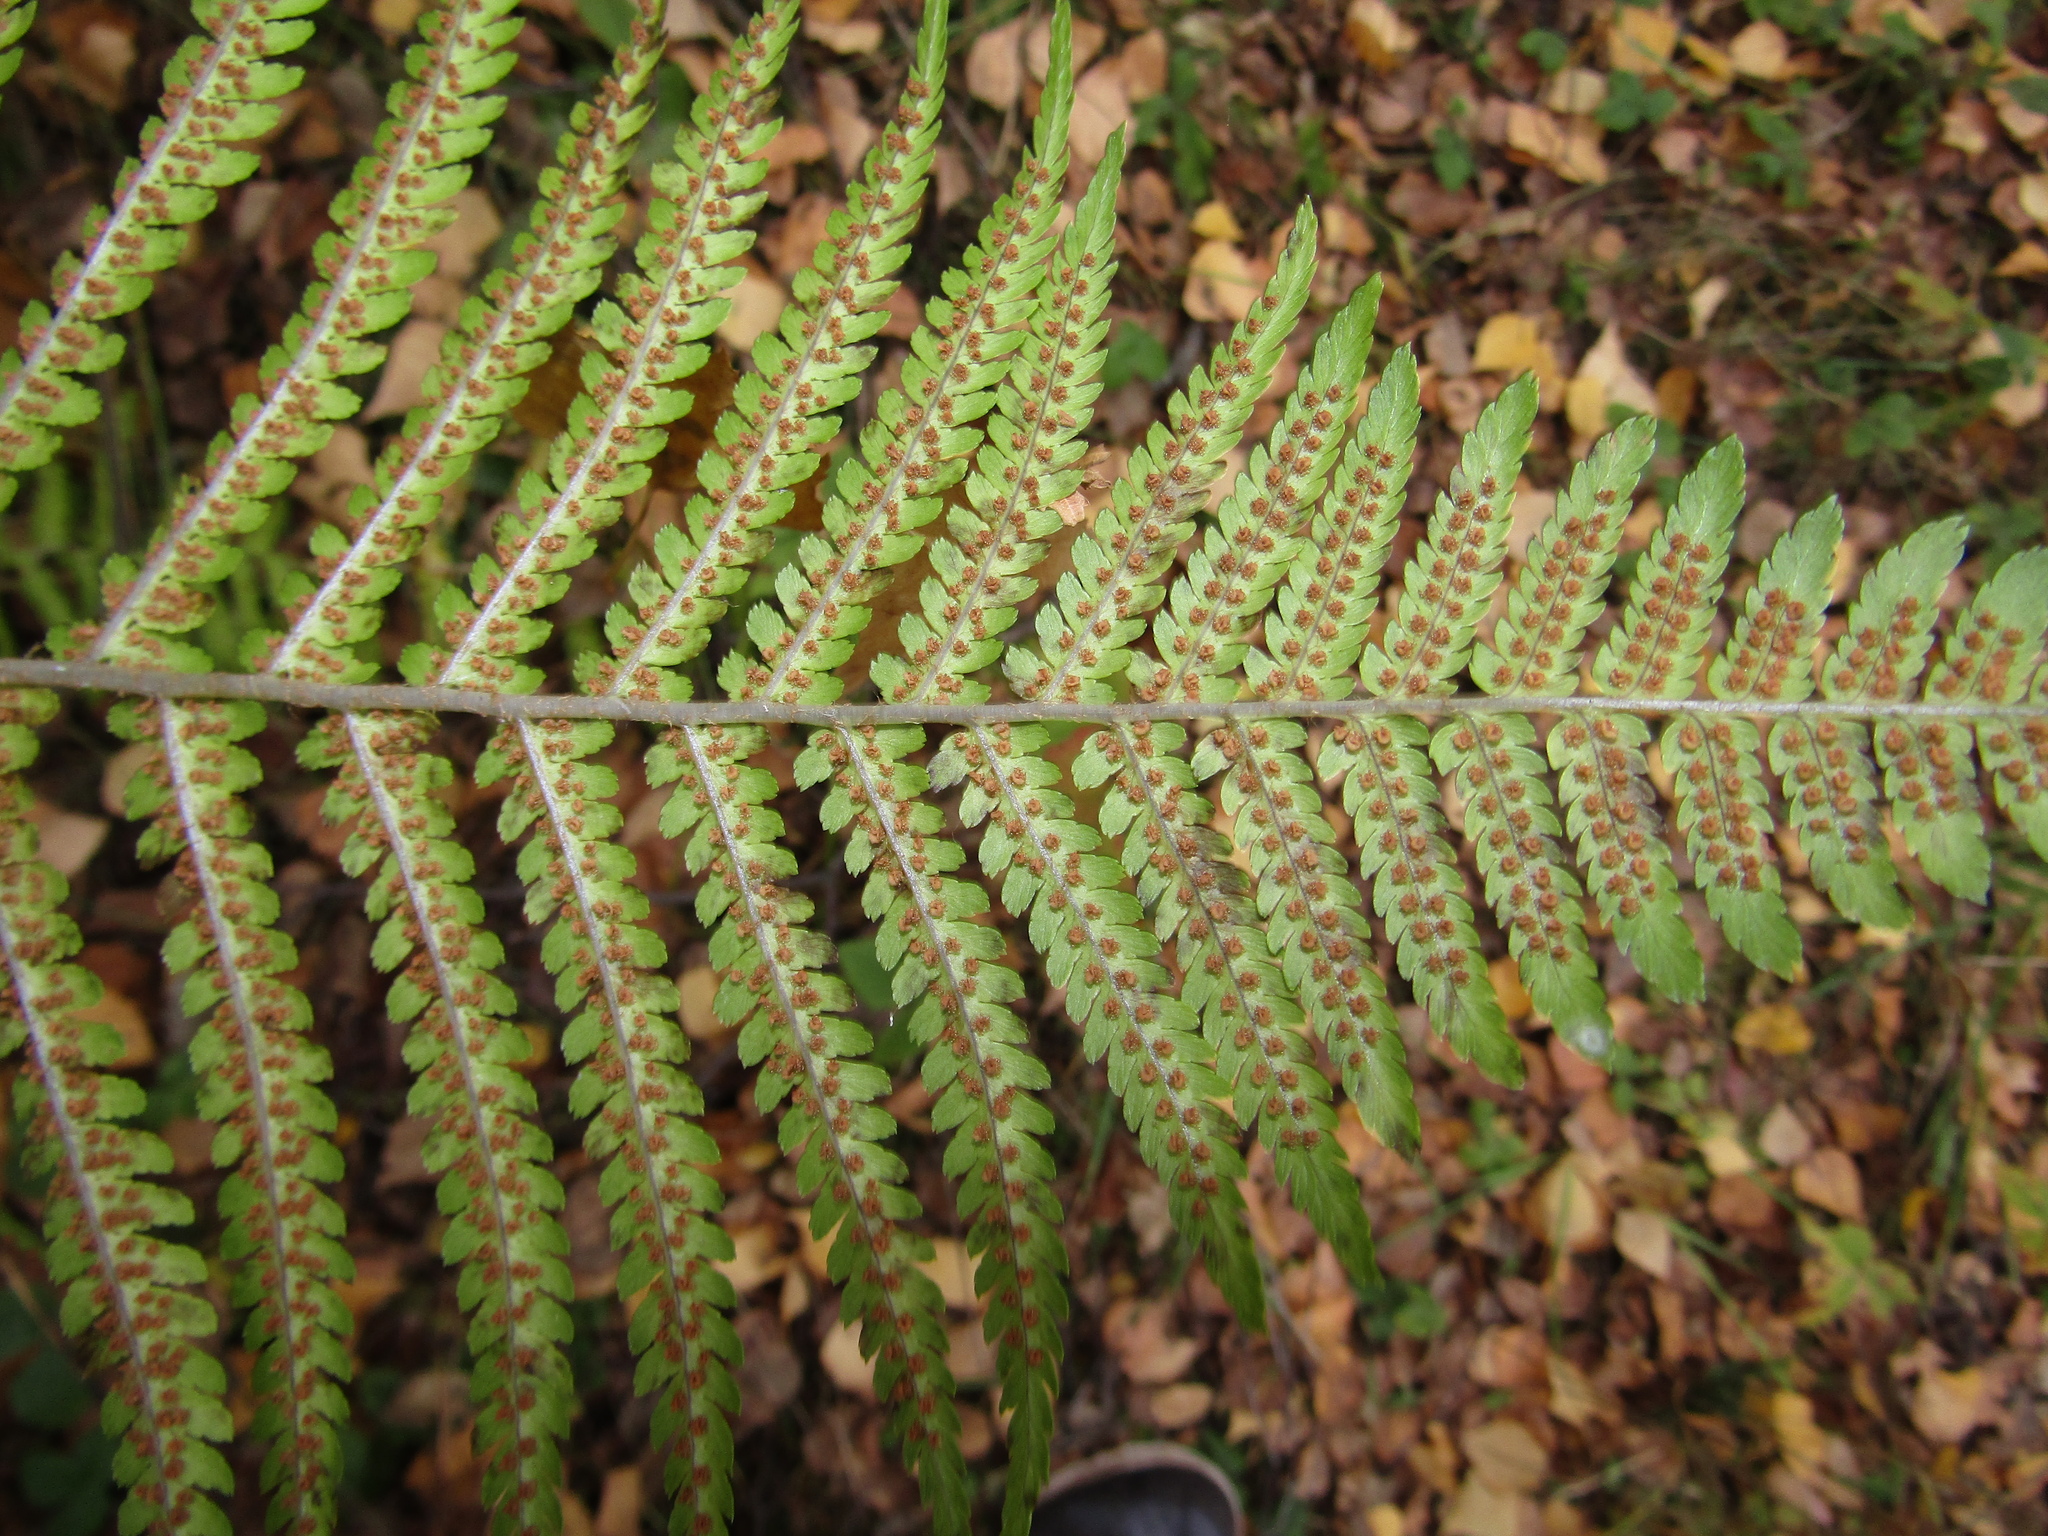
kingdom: Plantae
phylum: Tracheophyta
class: Polypodiopsida
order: Polypodiales
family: Dryopteridaceae
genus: Dryopteris
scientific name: Dryopteris filix-mas
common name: Male fern
